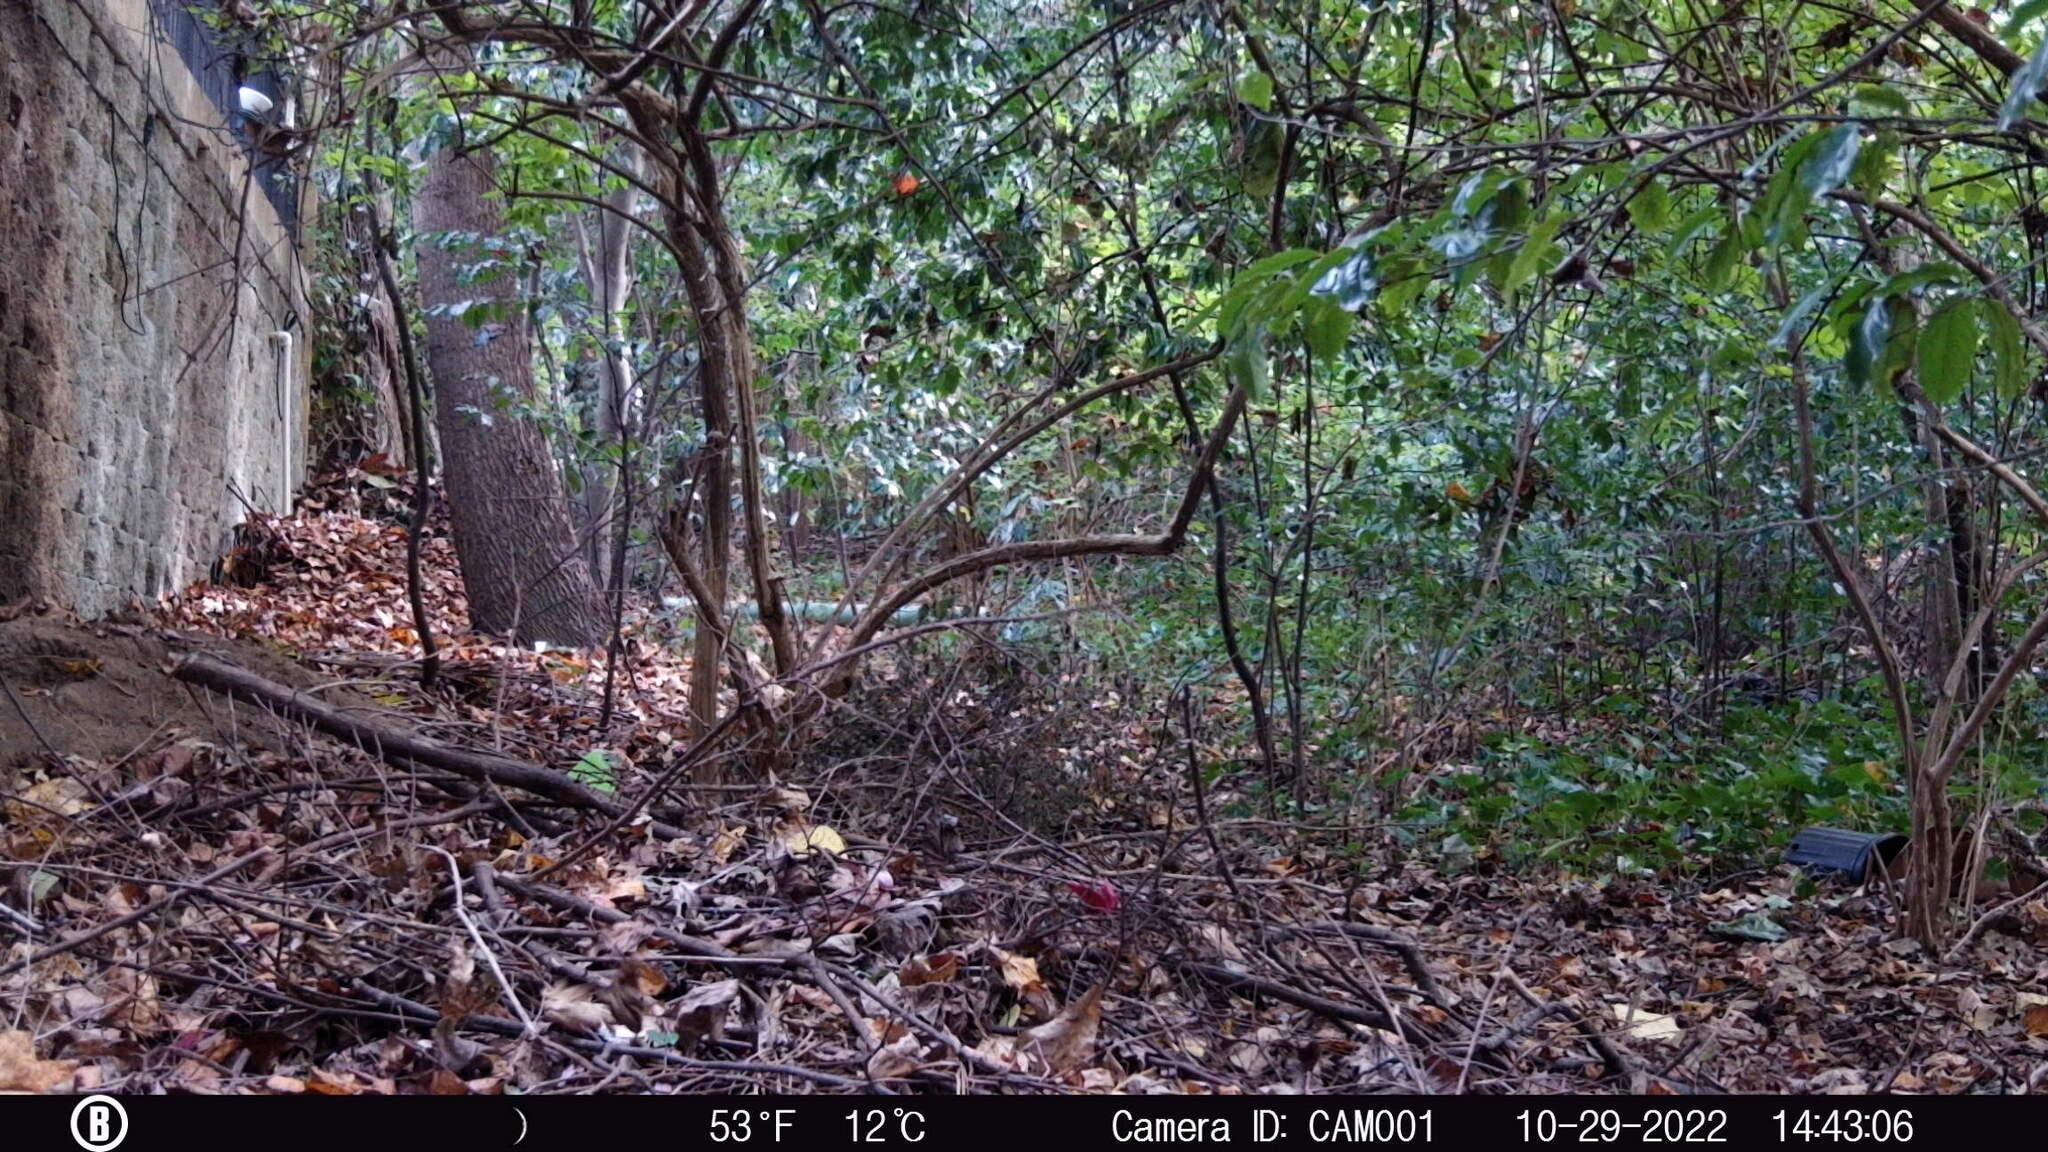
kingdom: Animalia
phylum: Chordata
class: Aves
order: Accipitriformes
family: Accipitridae
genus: Accipiter
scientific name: Accipiter cooperii
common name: Cooper's hawk
